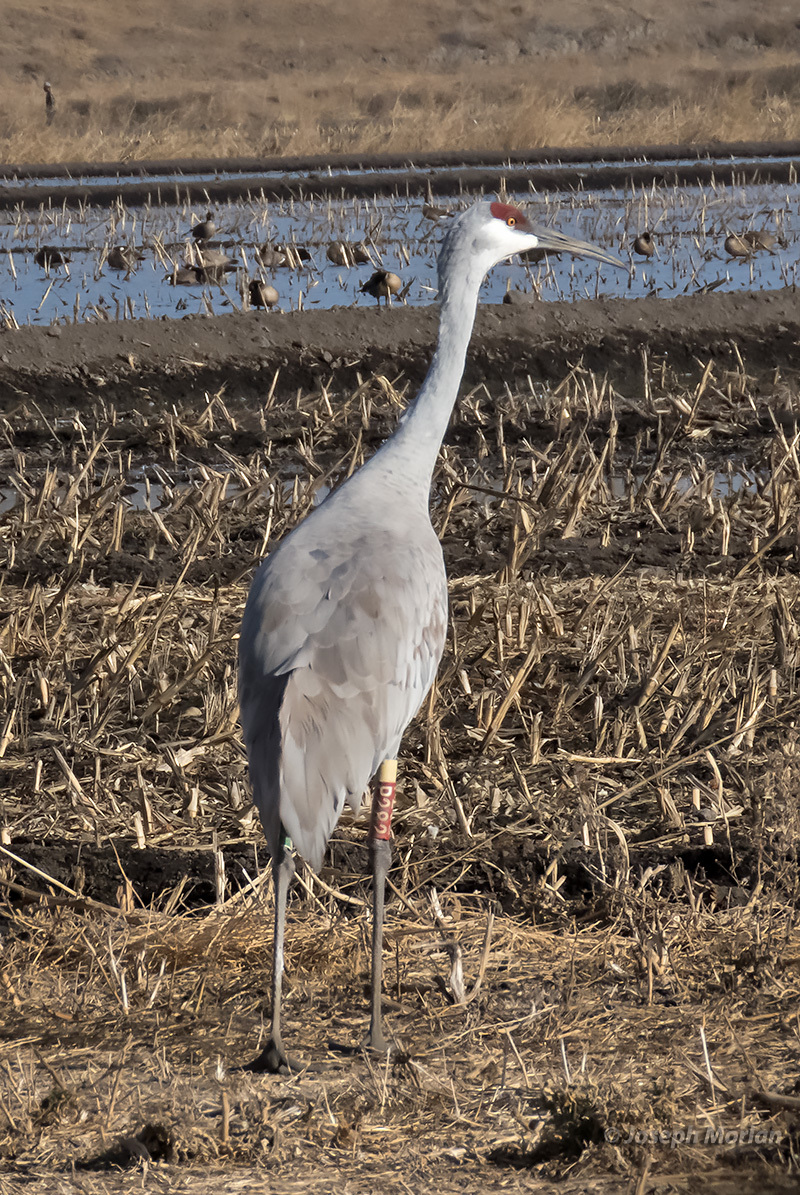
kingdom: Animalia
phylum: Chordata
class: Aves
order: Gruiformes
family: Gruidae
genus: Grus
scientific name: Grus canadensis
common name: Sandhill crane
